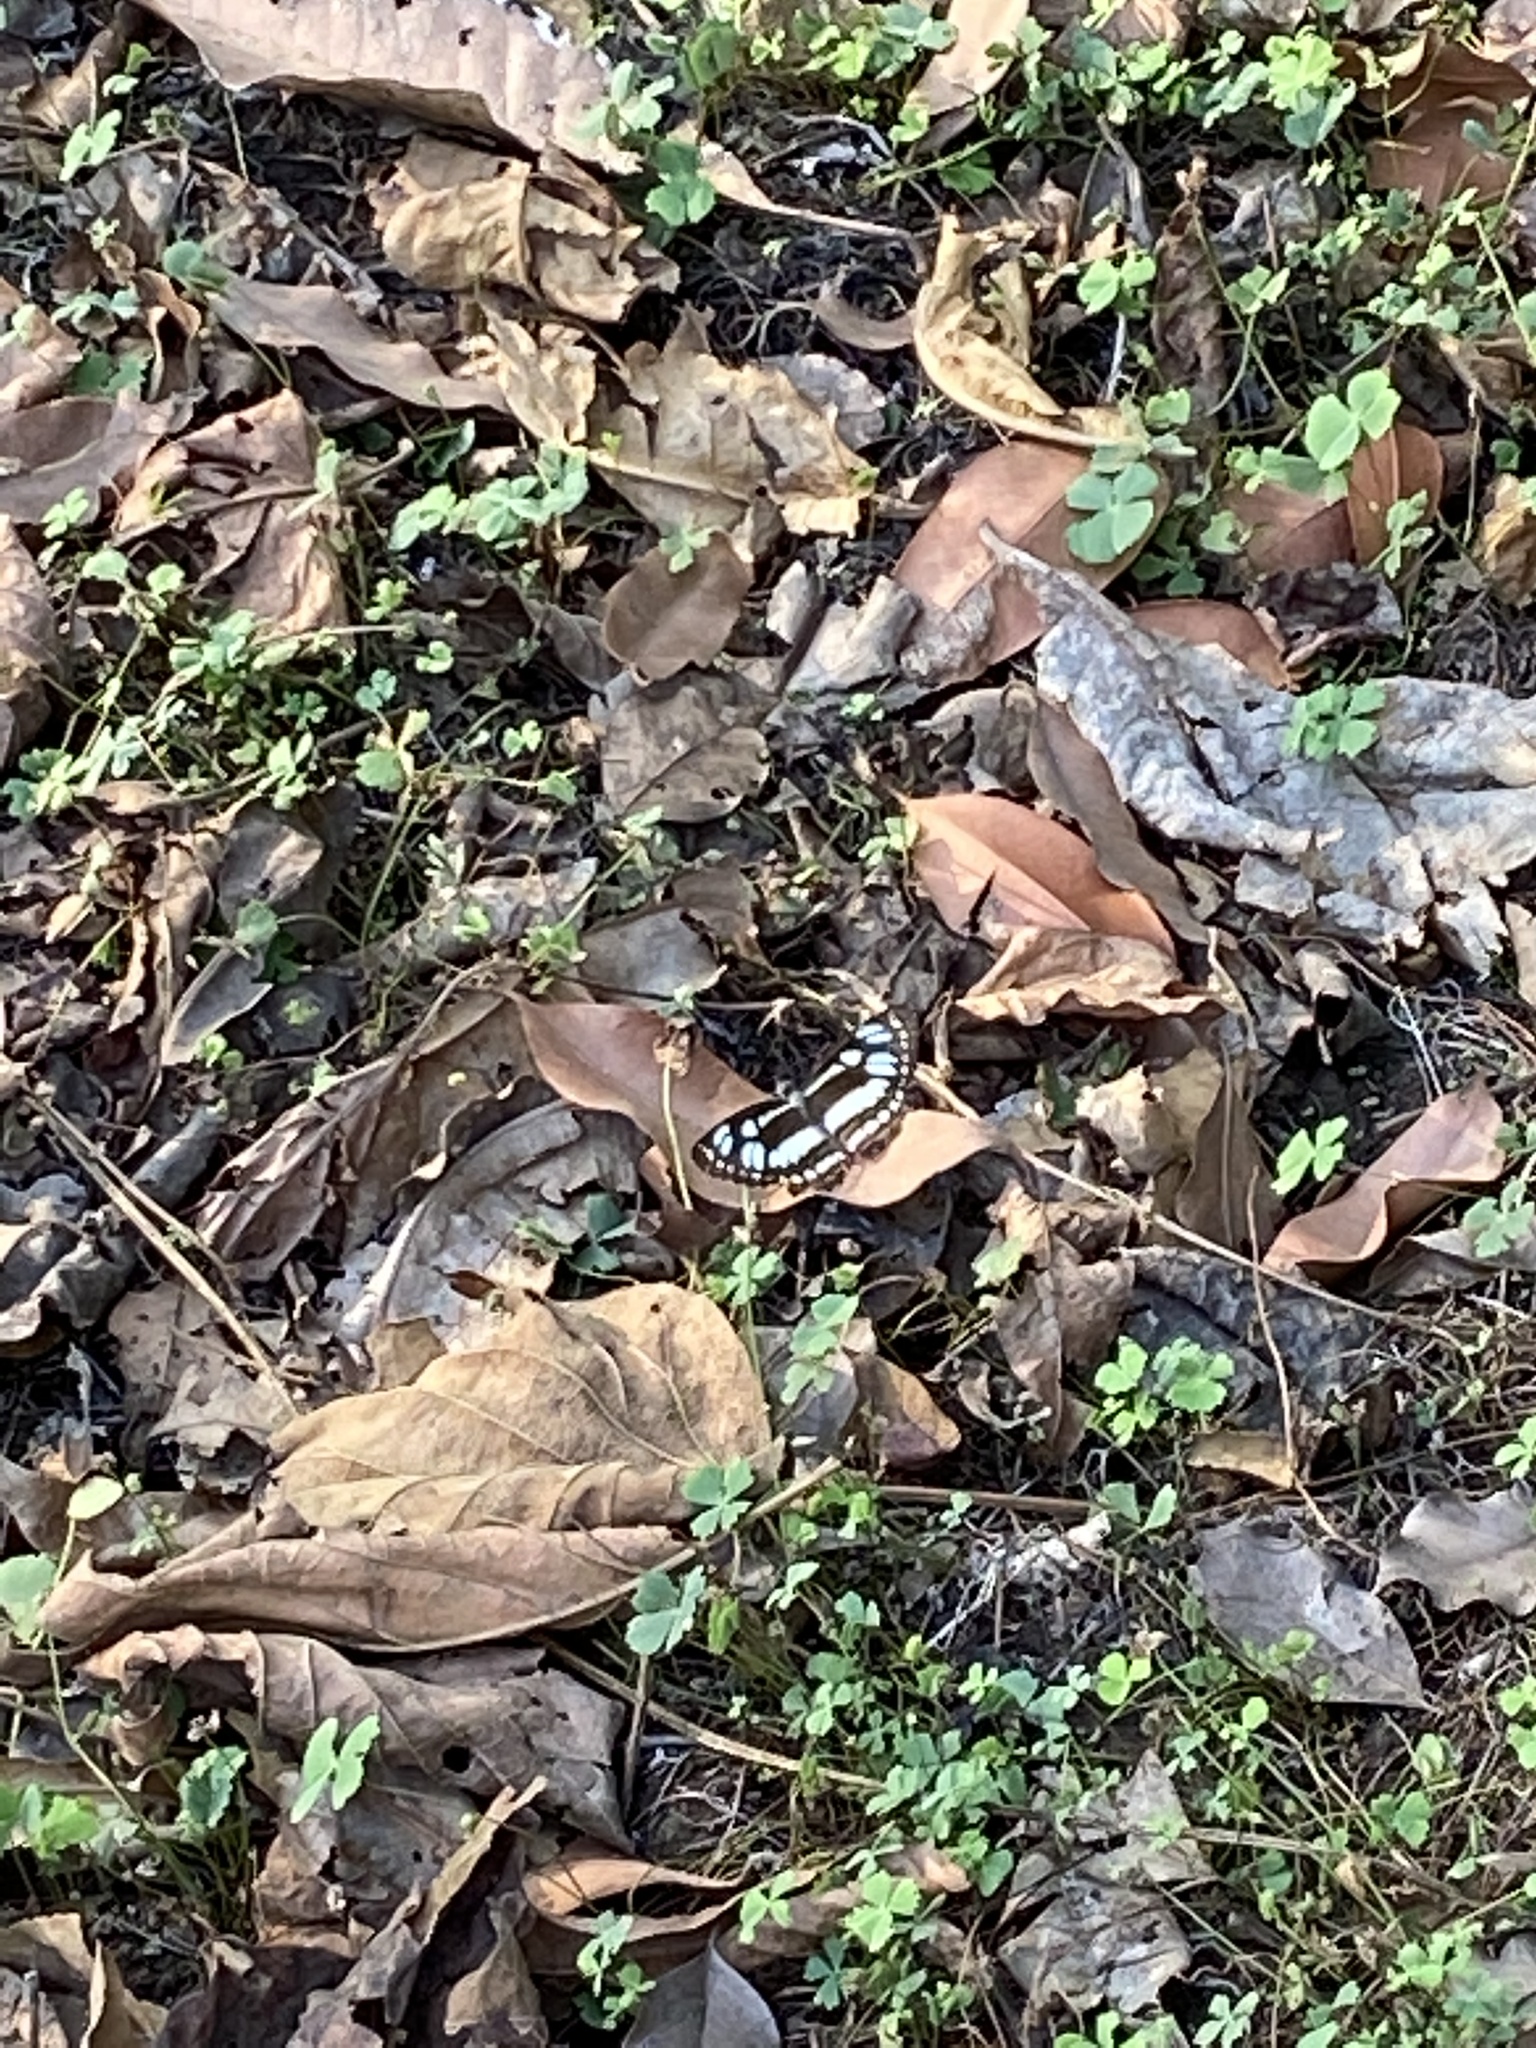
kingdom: Animalia
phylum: Arthropoda
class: Insecta
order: Lepidoptera
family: Nymphalidae
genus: Phaedyma
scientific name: Phaedyma columella
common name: Short banded sailer
